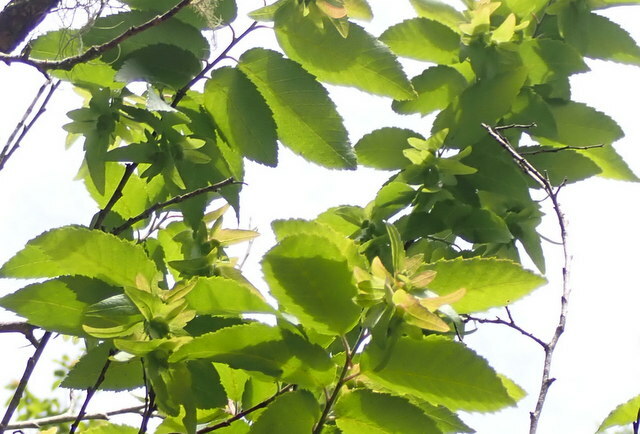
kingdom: Plantae
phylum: Tracheophyta
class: Magnoliopsida
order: Fagales
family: Betulaceae
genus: Carpinus
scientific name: Carpinus caroliniana
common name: American hornbeam
